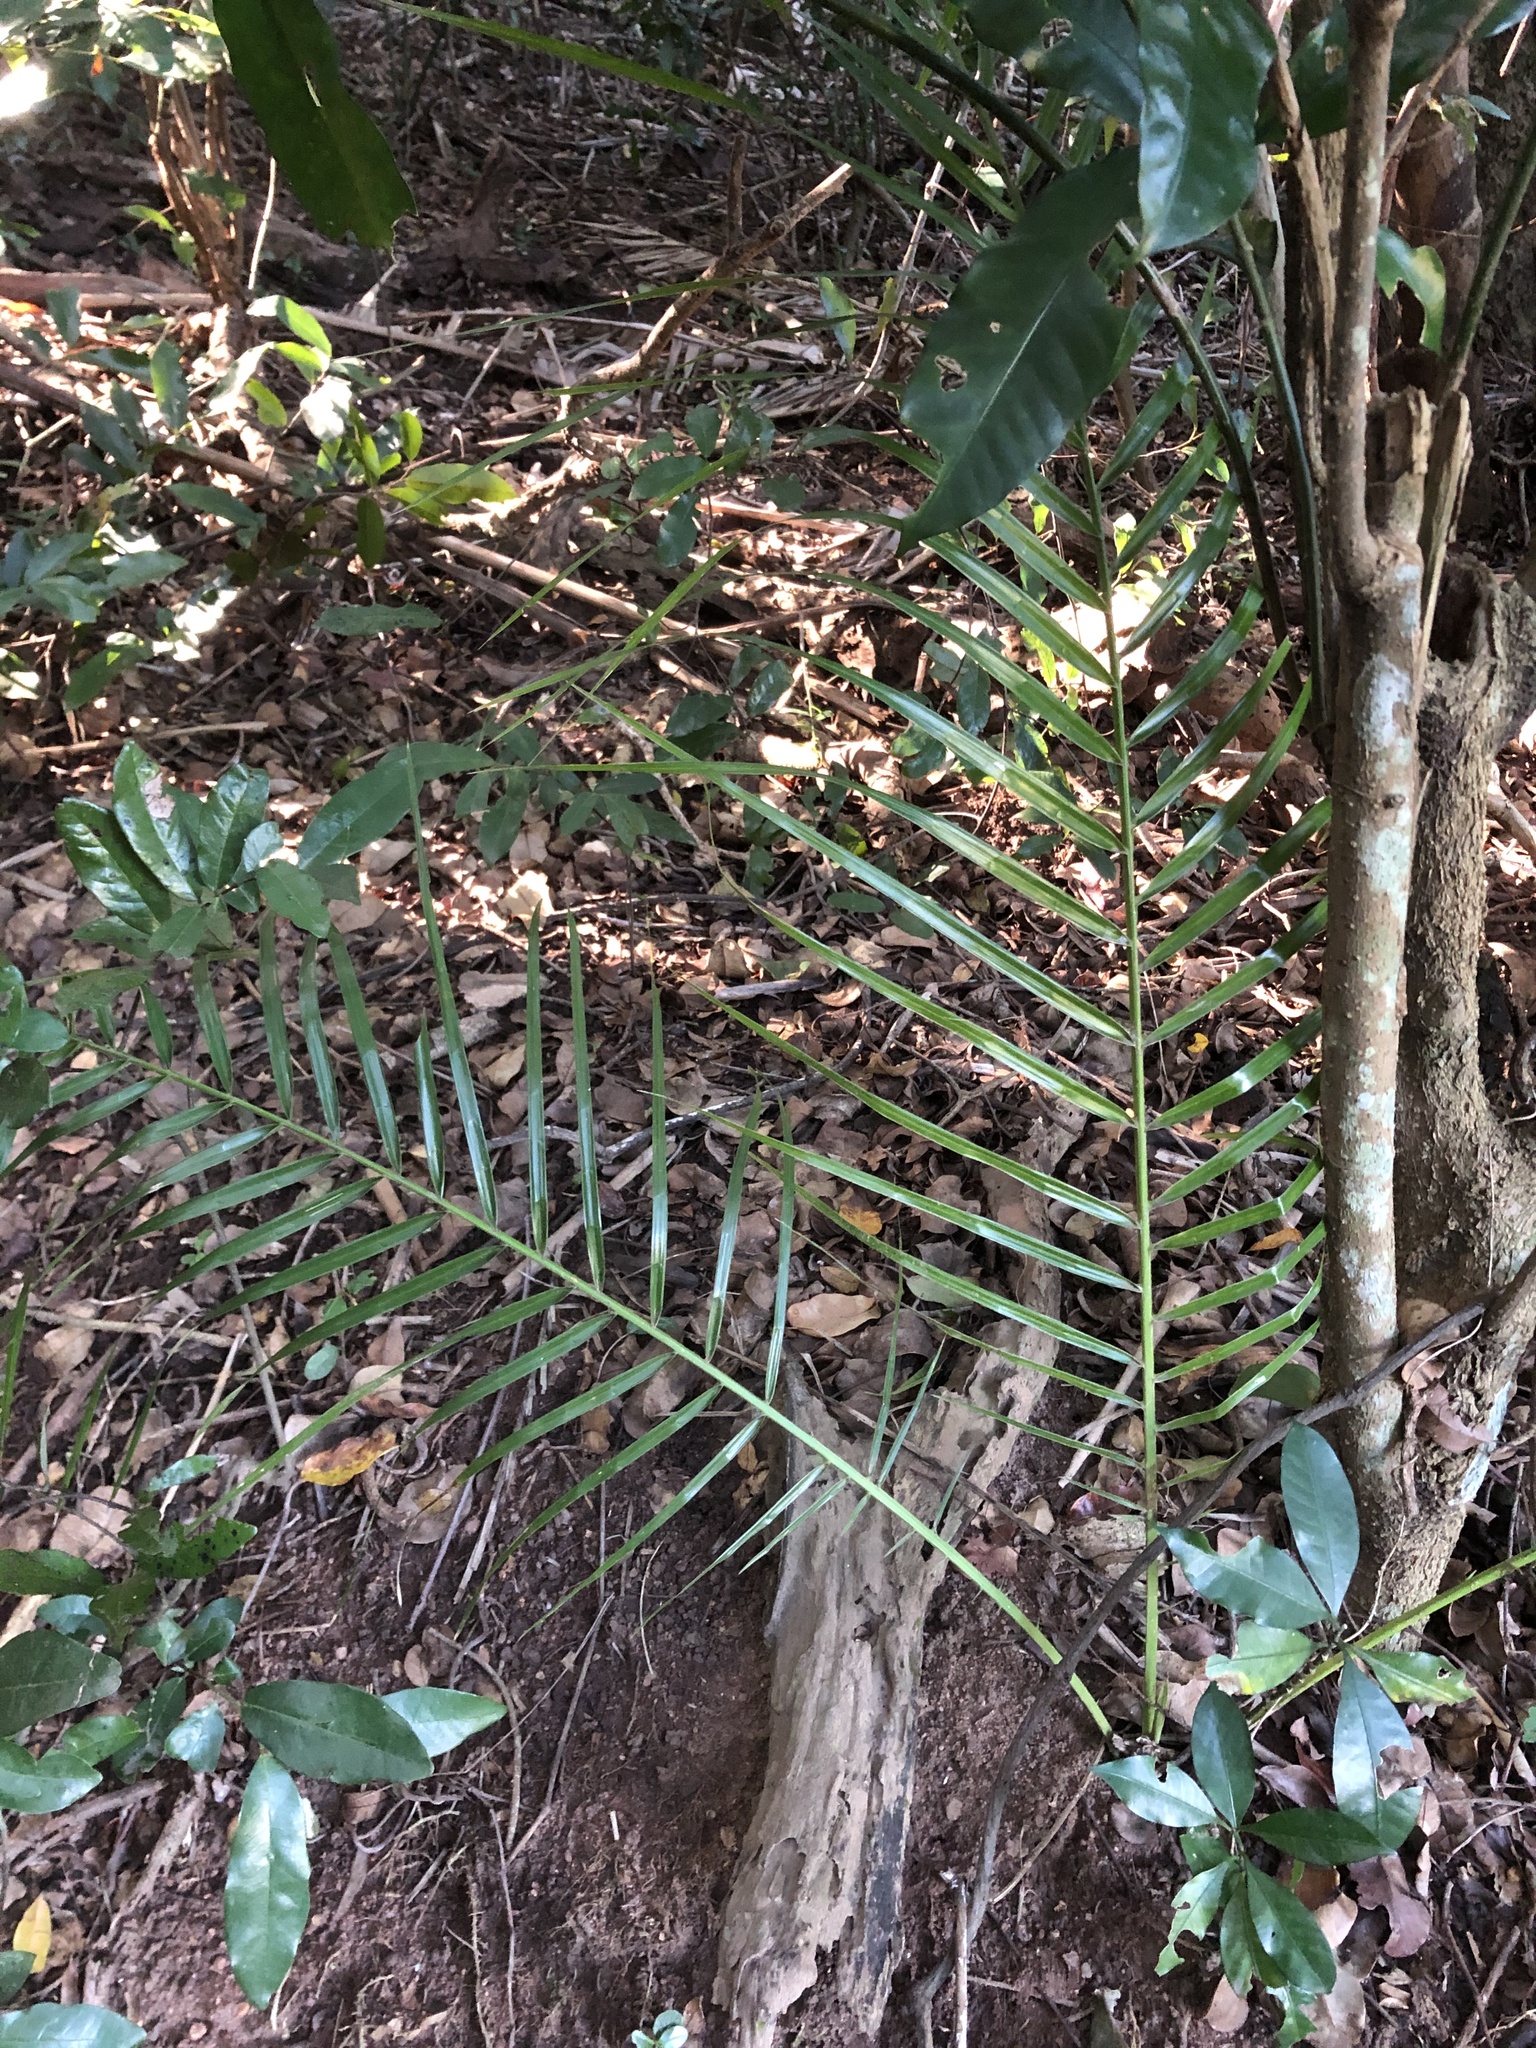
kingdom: Plantae
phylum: Tracheophyta
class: Liliopsida
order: Arecales
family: Arecaceae
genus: Phoenix
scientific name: Phoenix reclinata
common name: Senegal date palm
